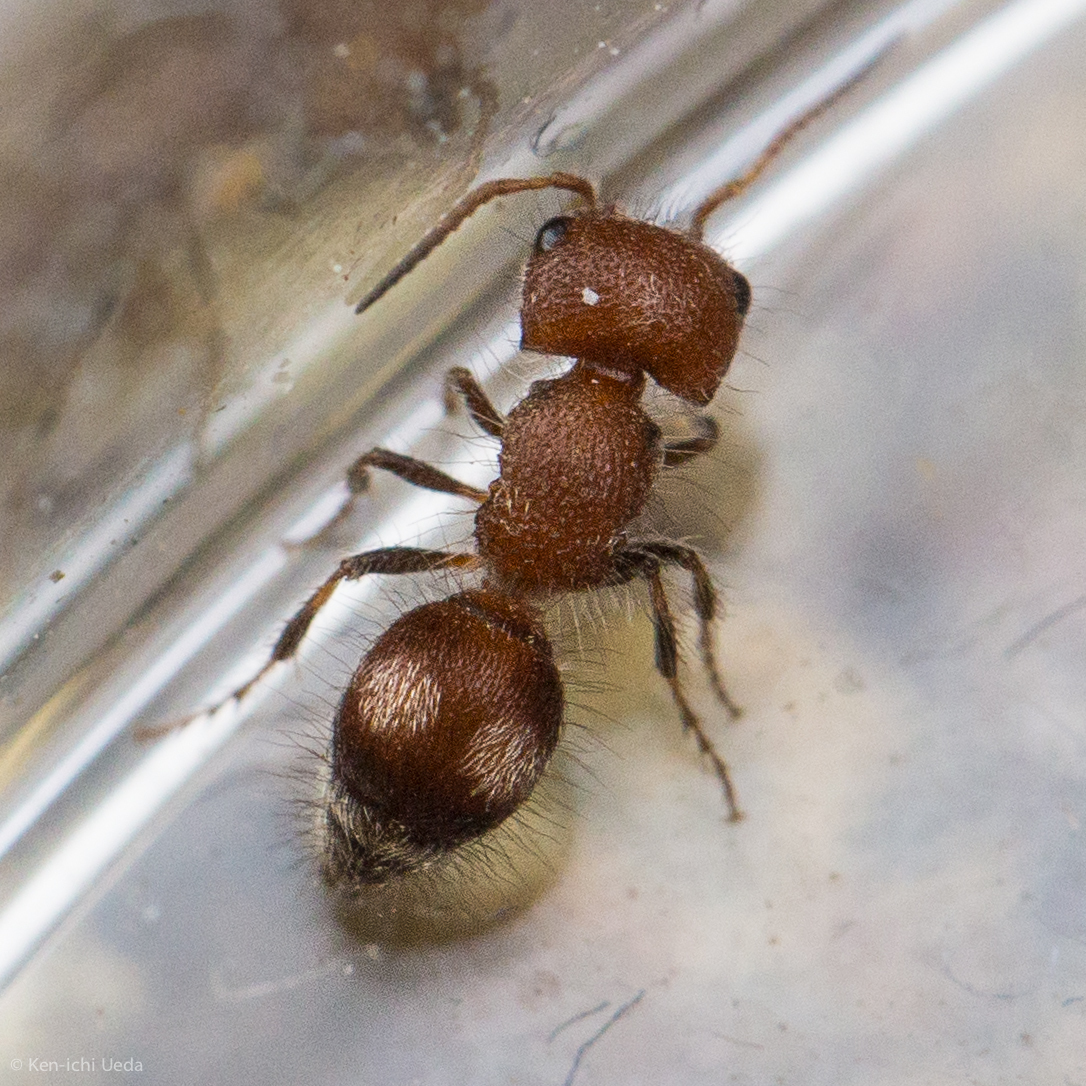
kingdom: Animalia
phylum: Arthropoda
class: Insecta
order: Hymenoptera
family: Mutillidae
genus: Pseudomethoca
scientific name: Pseudomethoca athamas
